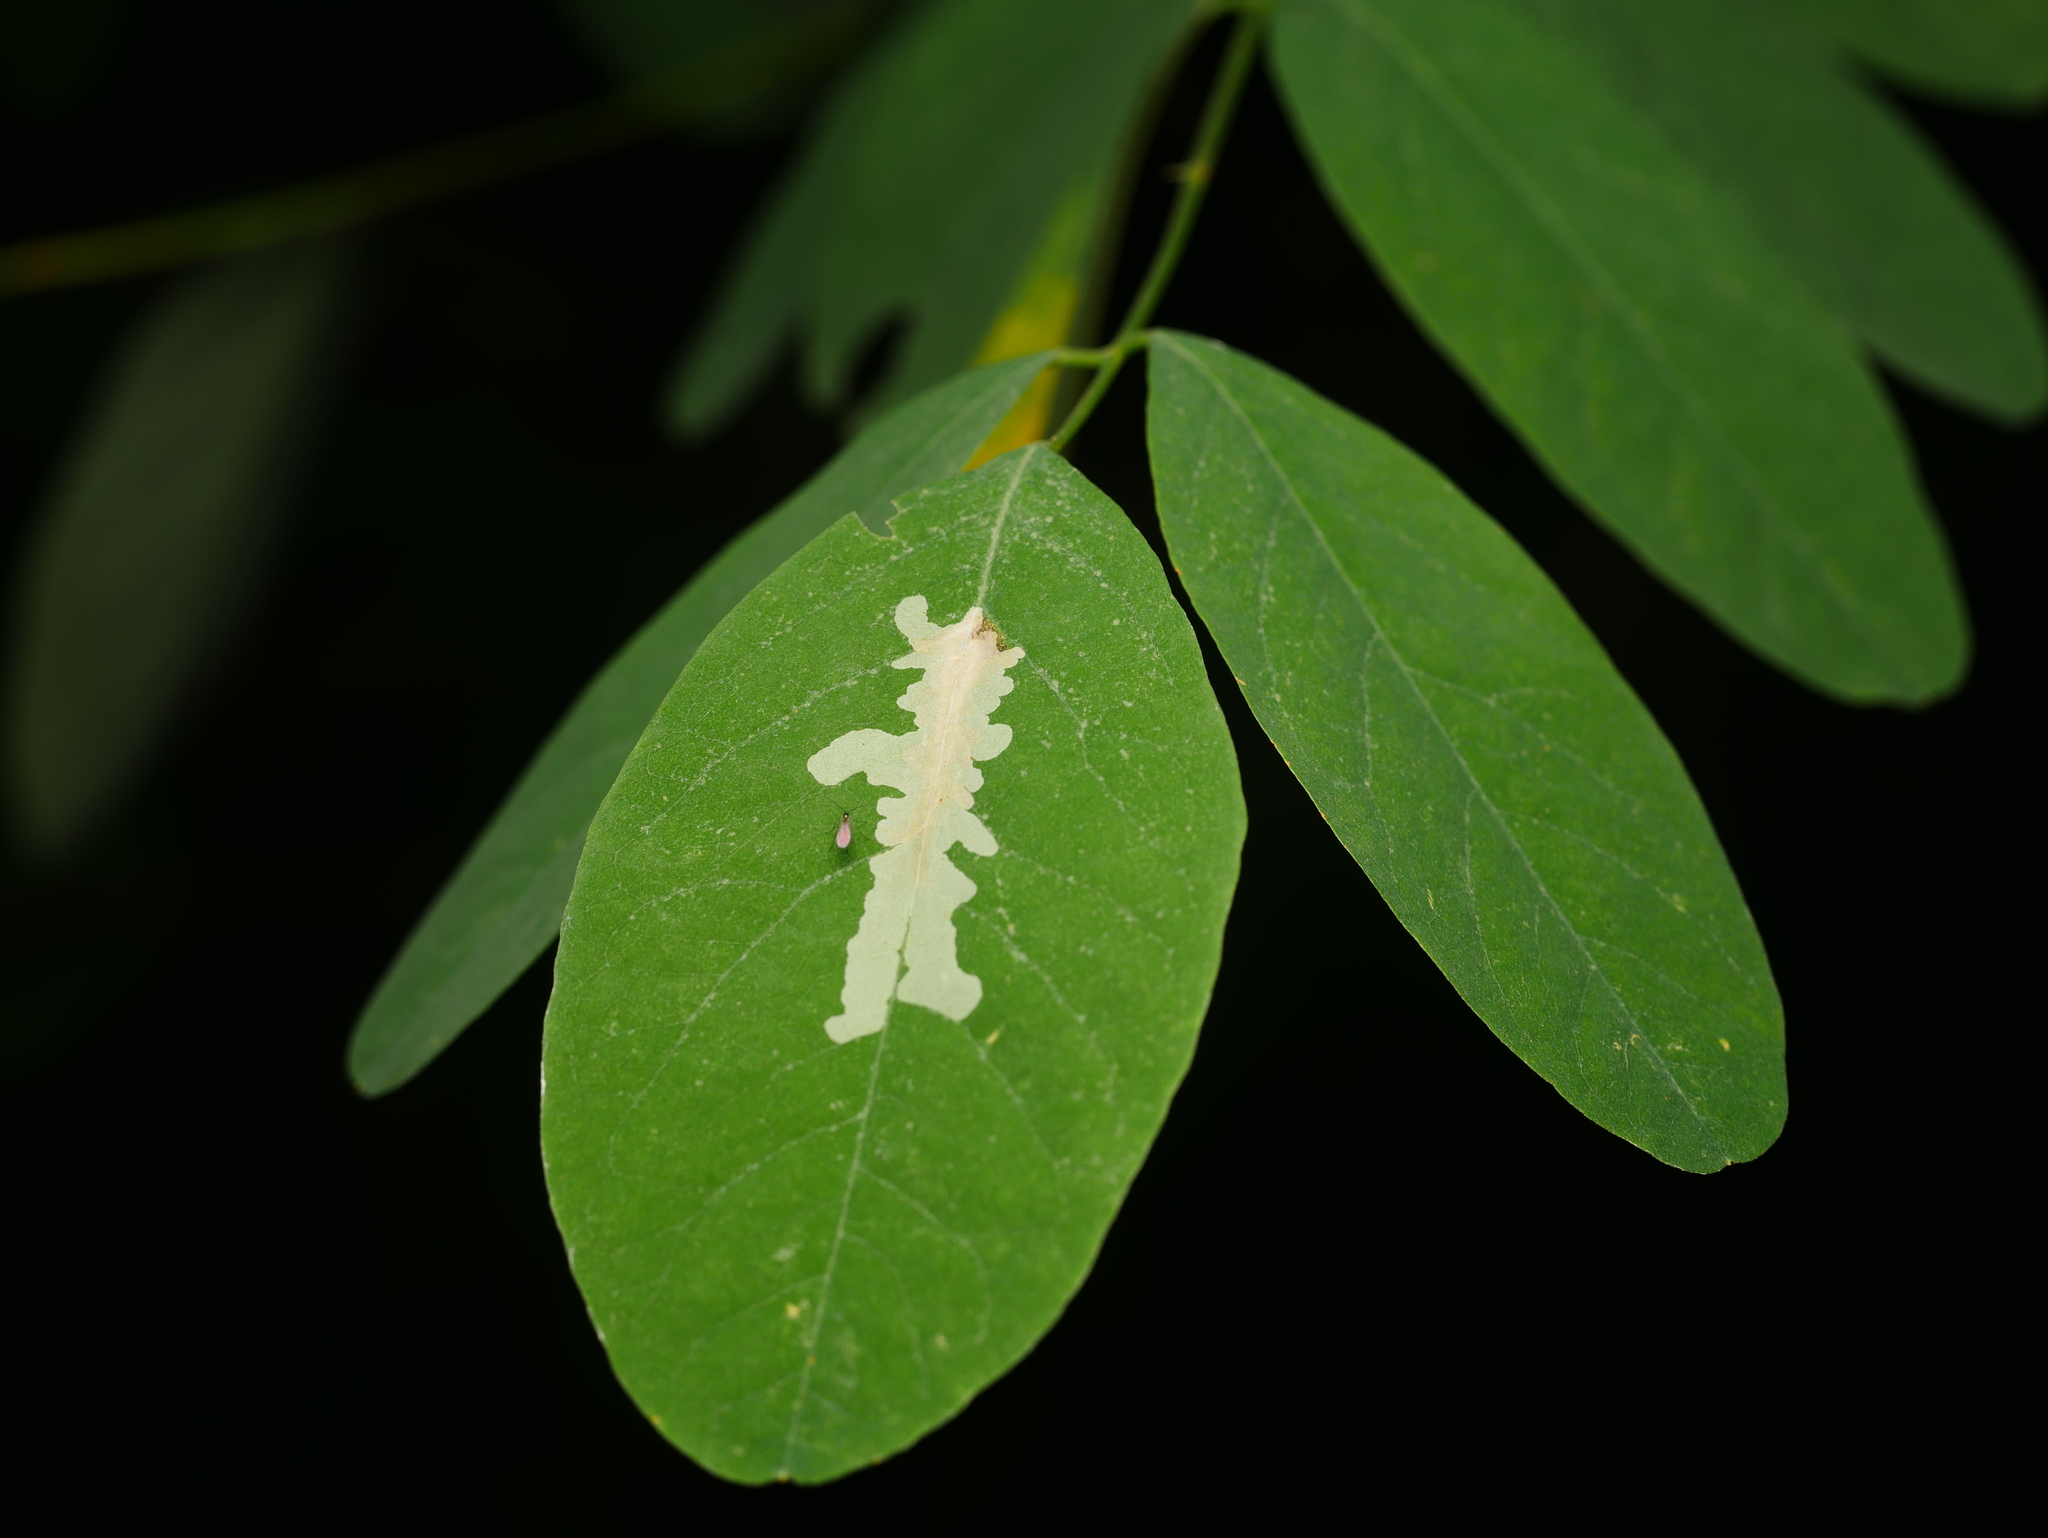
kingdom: Animalia
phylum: Arthropoda
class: Insecta
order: Lepidoptera
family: Gracillariidae
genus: Parectopa
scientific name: Parectopa robiniella
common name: Locust digitate leafminer
